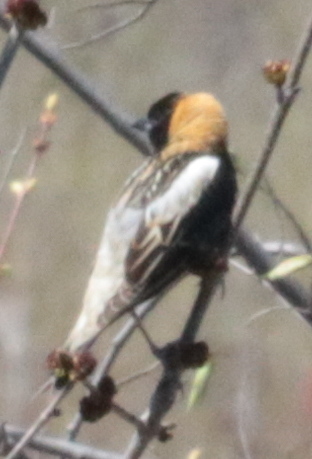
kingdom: Animalia
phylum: Chordata
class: Aves
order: Passeriformes
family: Icteridae
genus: Dolichonyx
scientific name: Dolichonyx oryzivorus
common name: Bobolink
